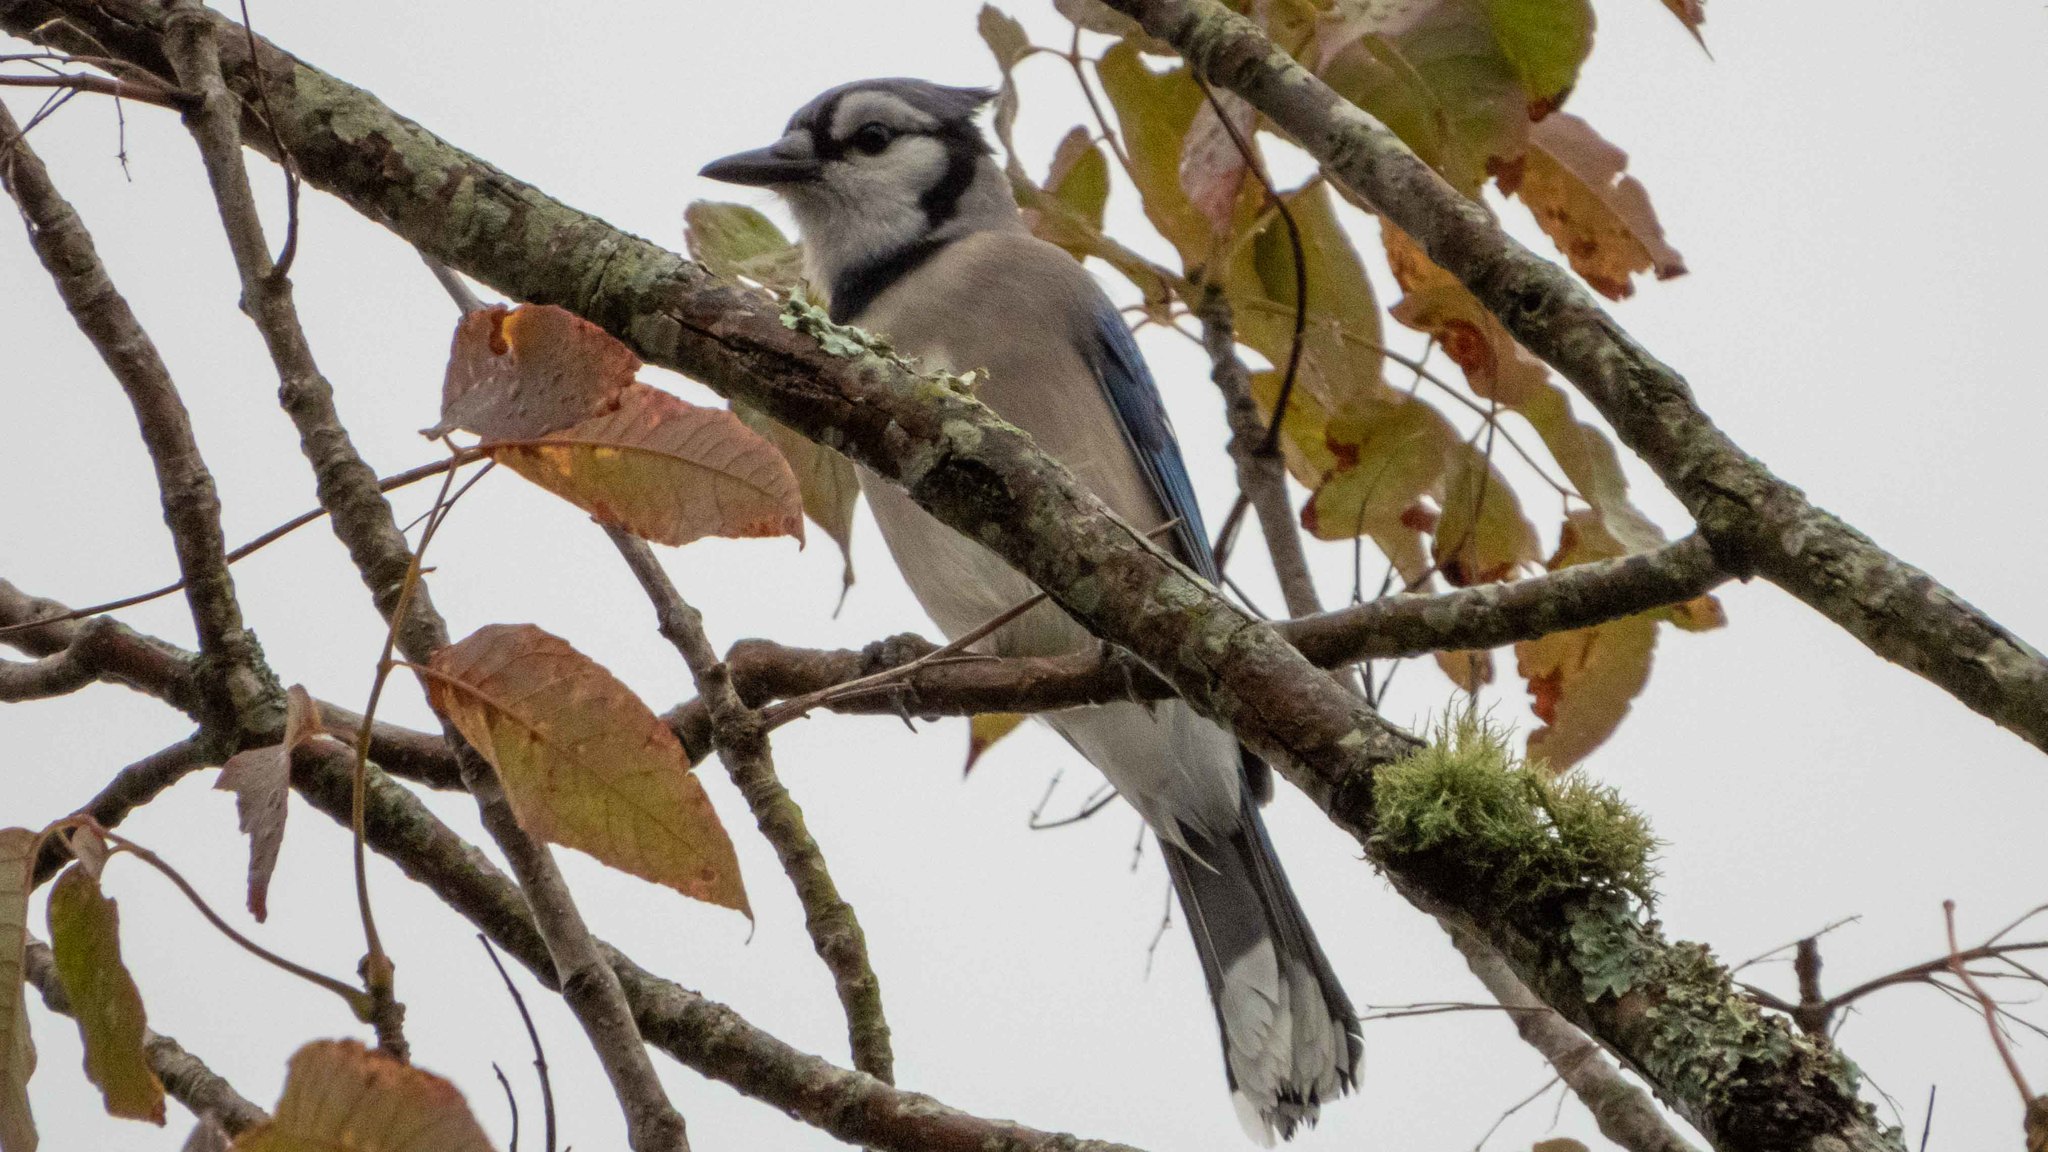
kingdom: Animalia
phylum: Chordata
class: Aves
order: Passeriformes
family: Corvidae
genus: Cyanocitta
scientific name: Cyanocitta cristata
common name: Blue jay
